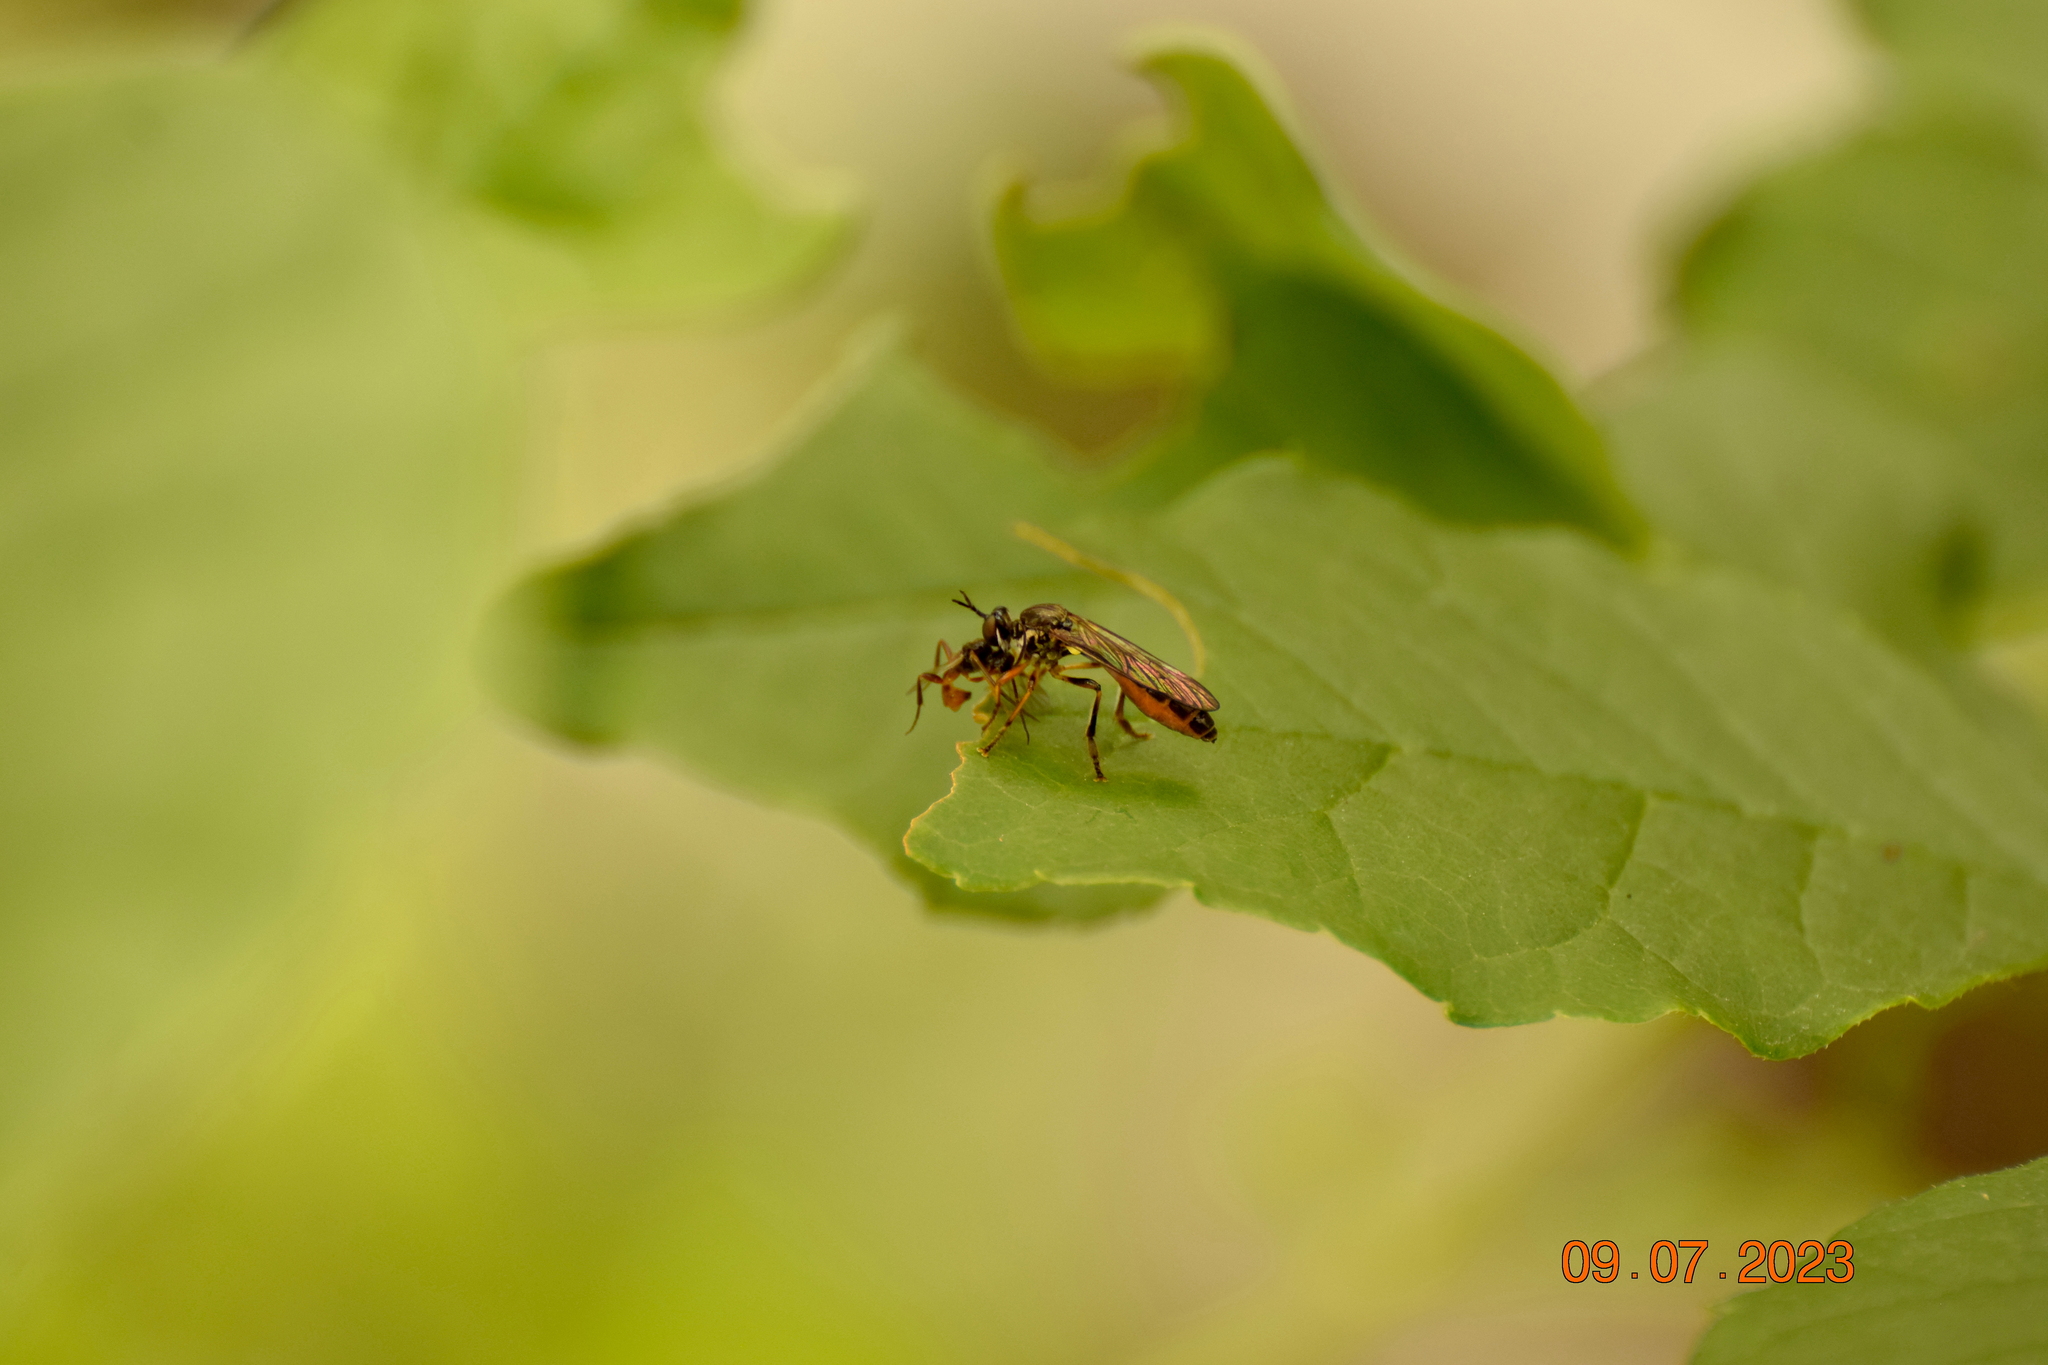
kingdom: Animalia
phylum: Arthropoda
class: Insecta
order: Diptera
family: Asilidae
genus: Dioctria
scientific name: Dioctria hyalipennis
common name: Stripe-legged robberfly
